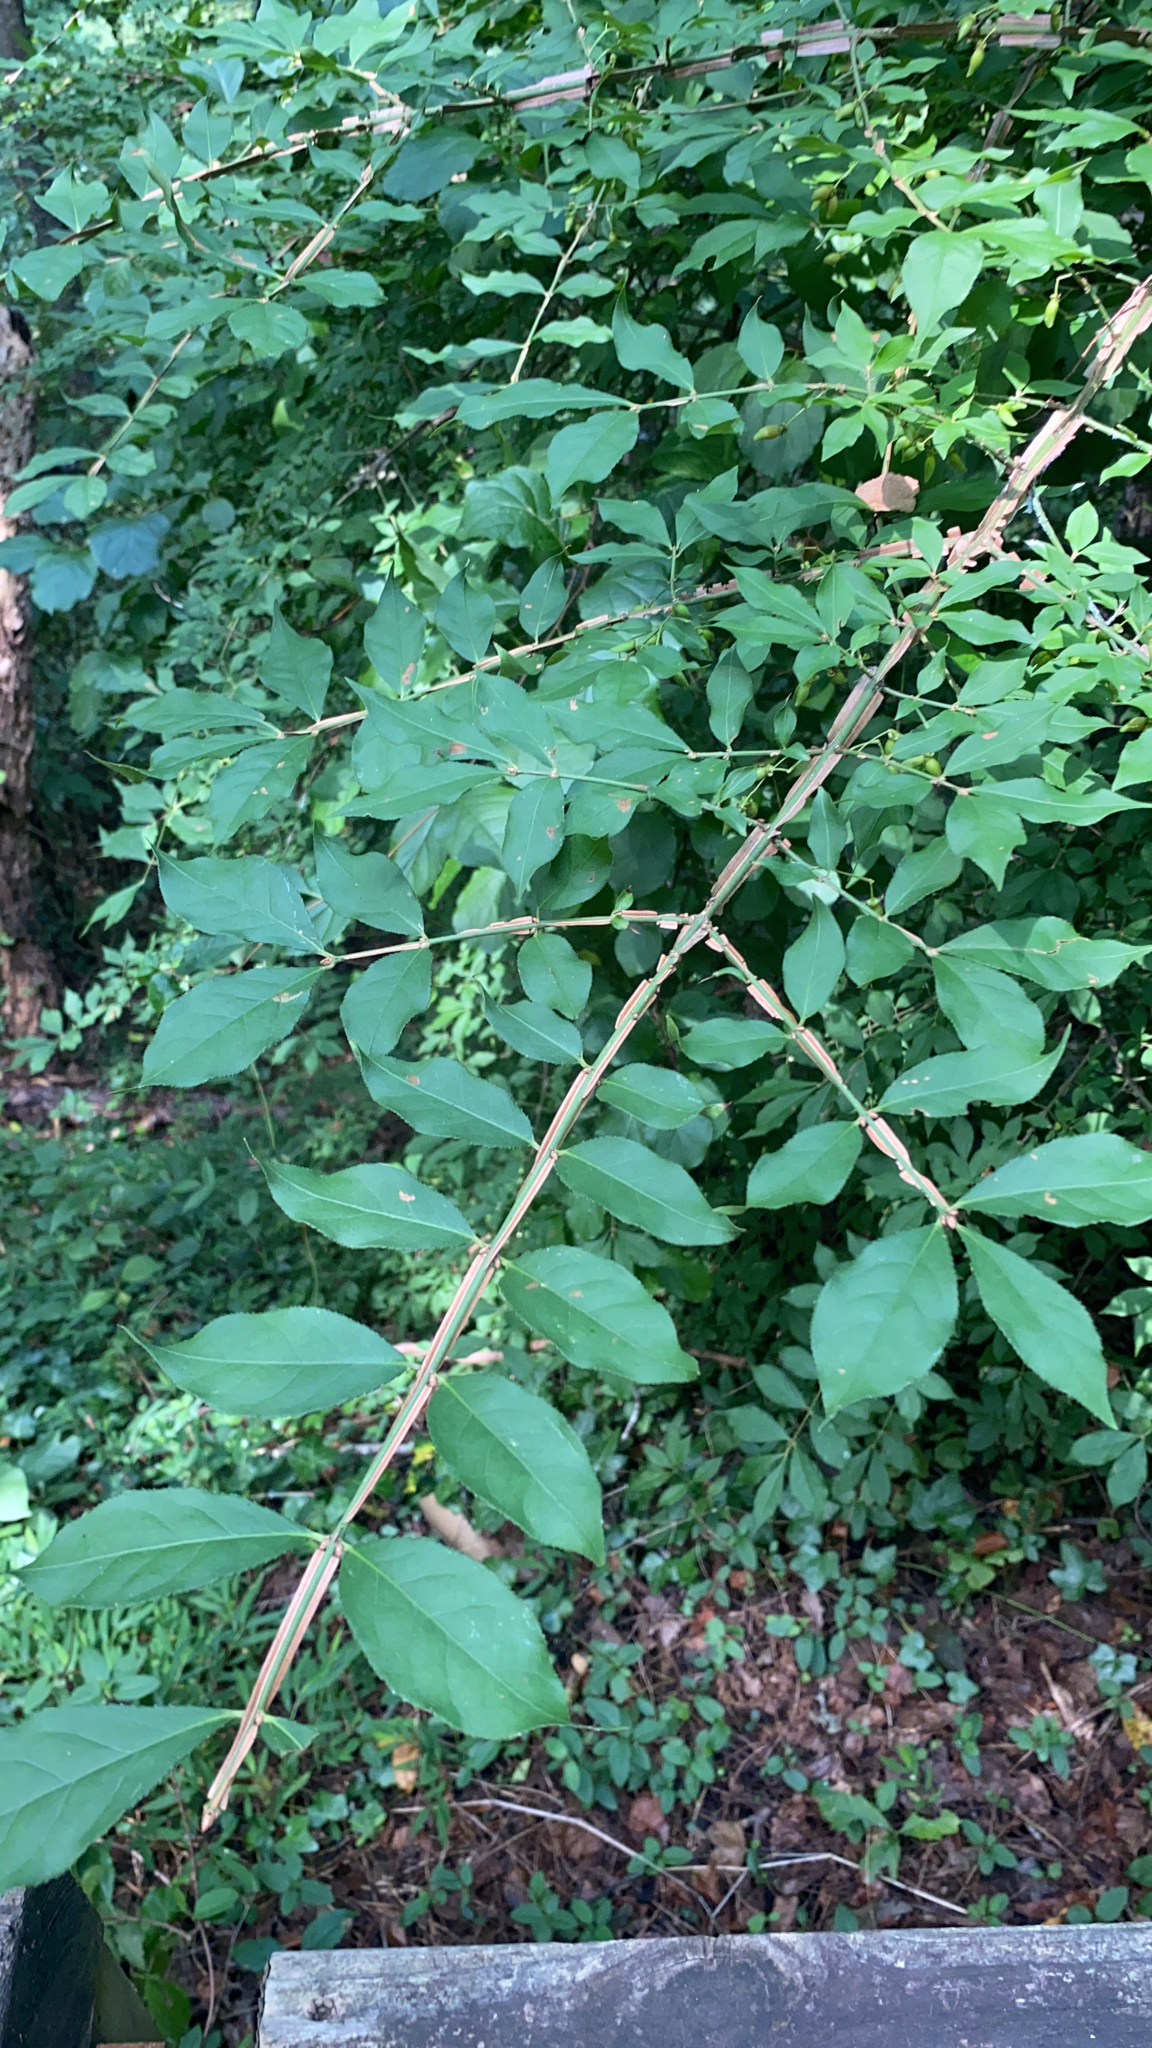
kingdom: Plantae
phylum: Tracheophyta
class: Magnoliopsida
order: Celastrales
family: Celastraceae
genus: Euonymus
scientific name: Euonymus alatus
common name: Winged euonymus
